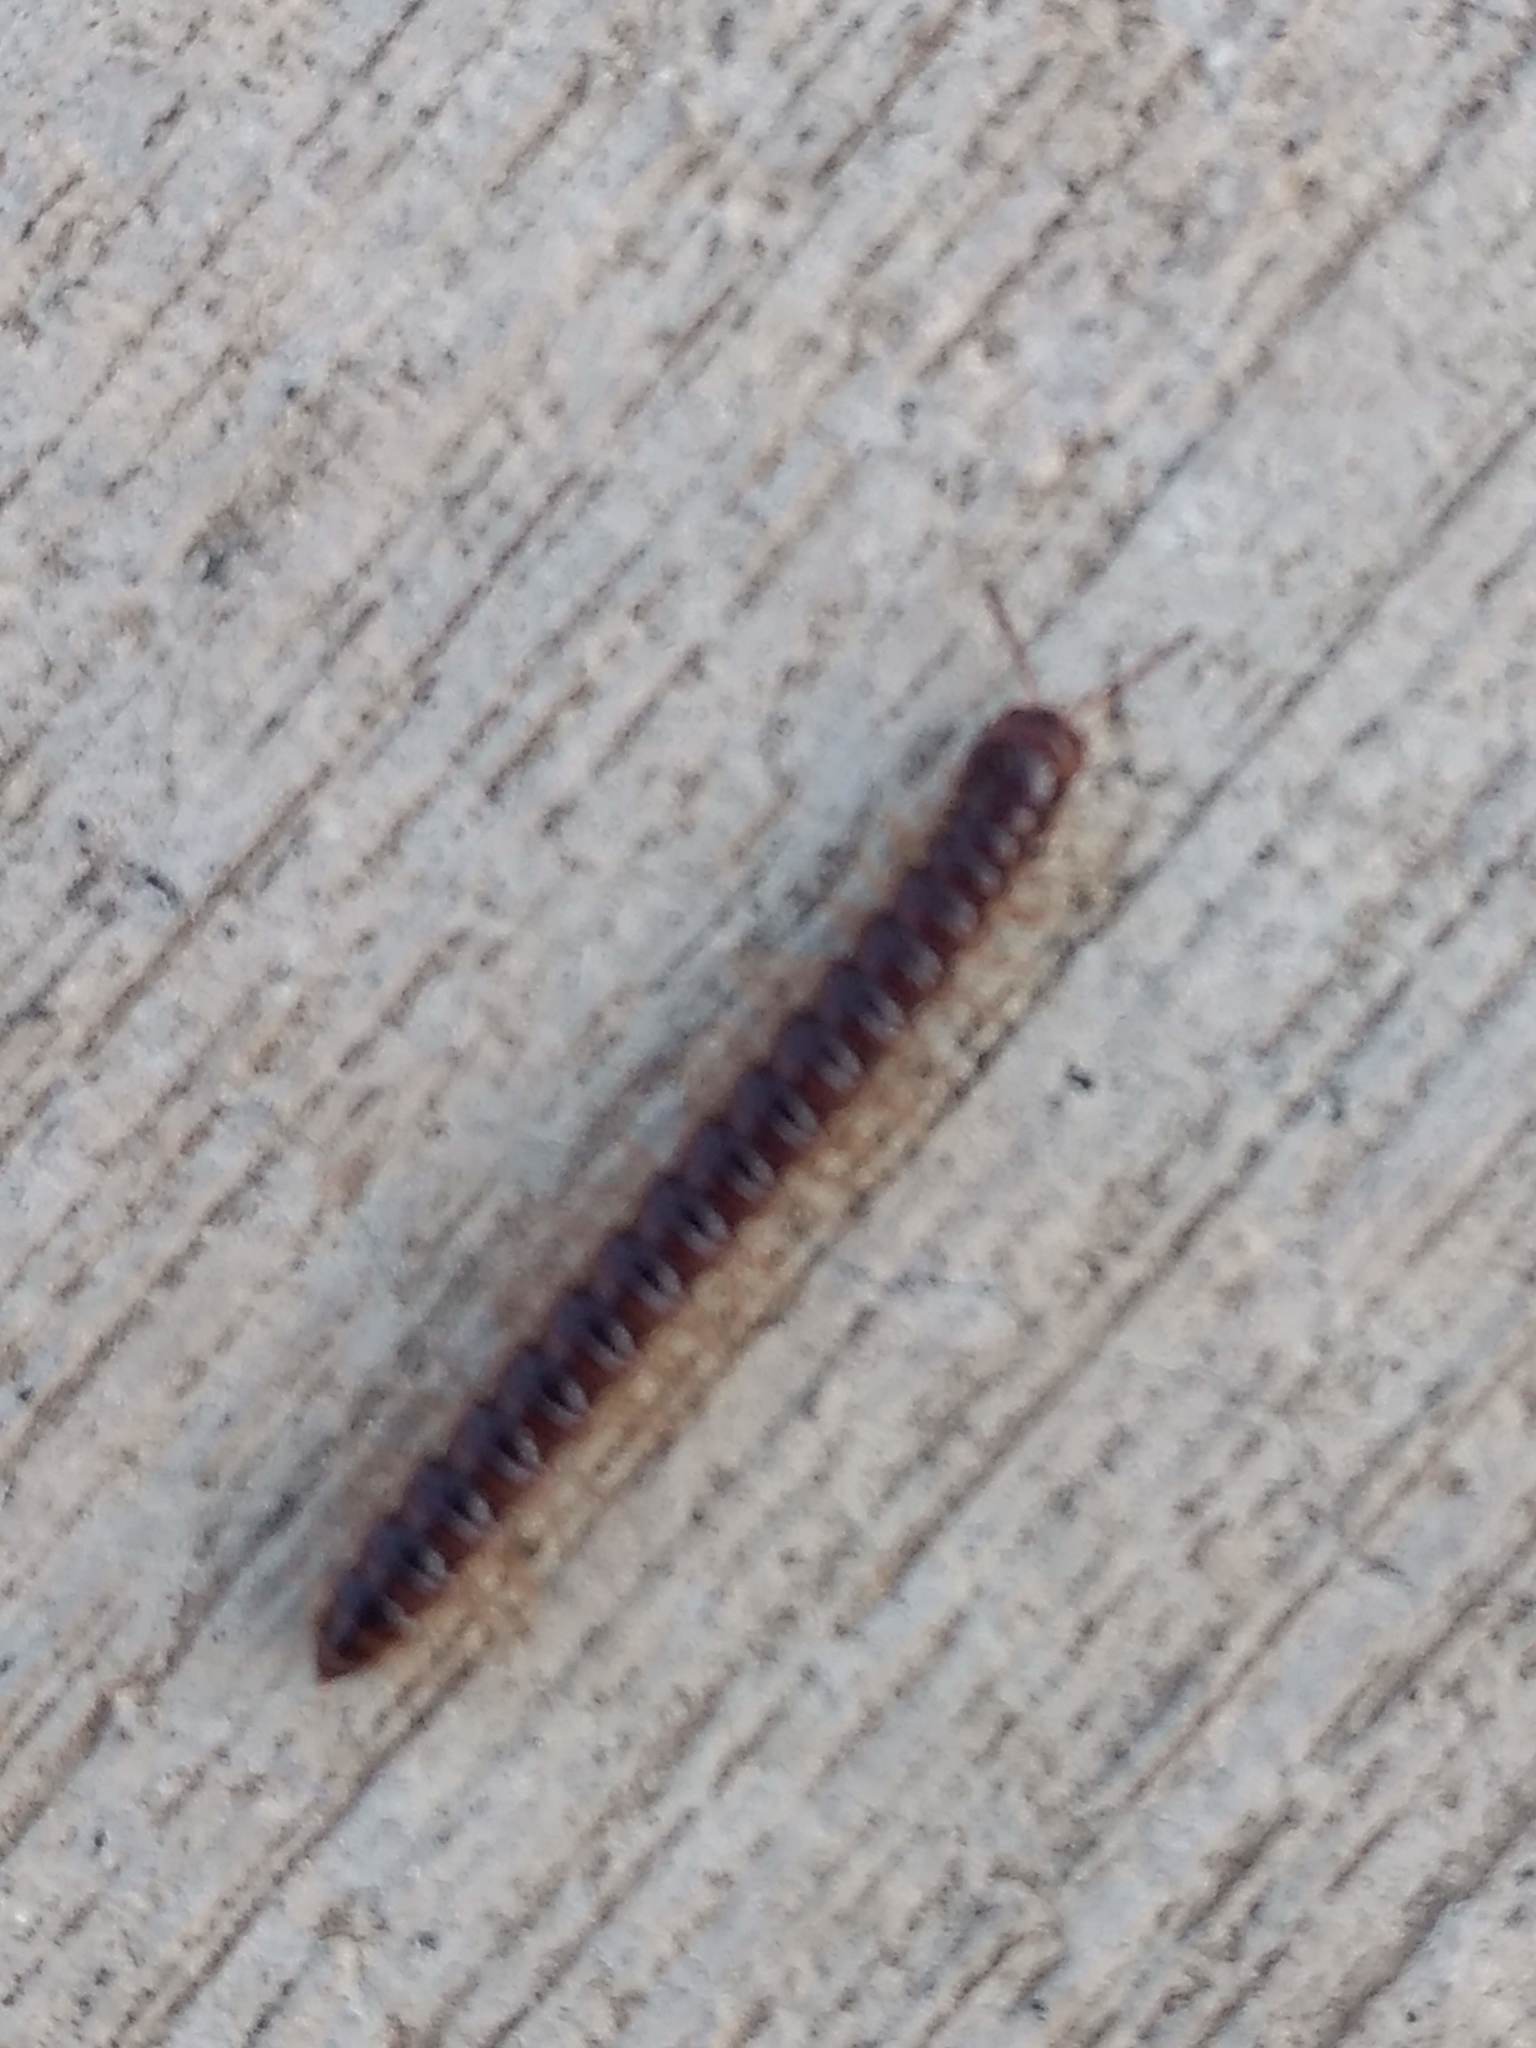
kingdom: Animalia
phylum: Arthropoda
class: Diplopoda
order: Polydesmida
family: Paradoxosomatidae
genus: Oxidus
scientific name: Oxidus gracilis
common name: Greenhouse millipede
